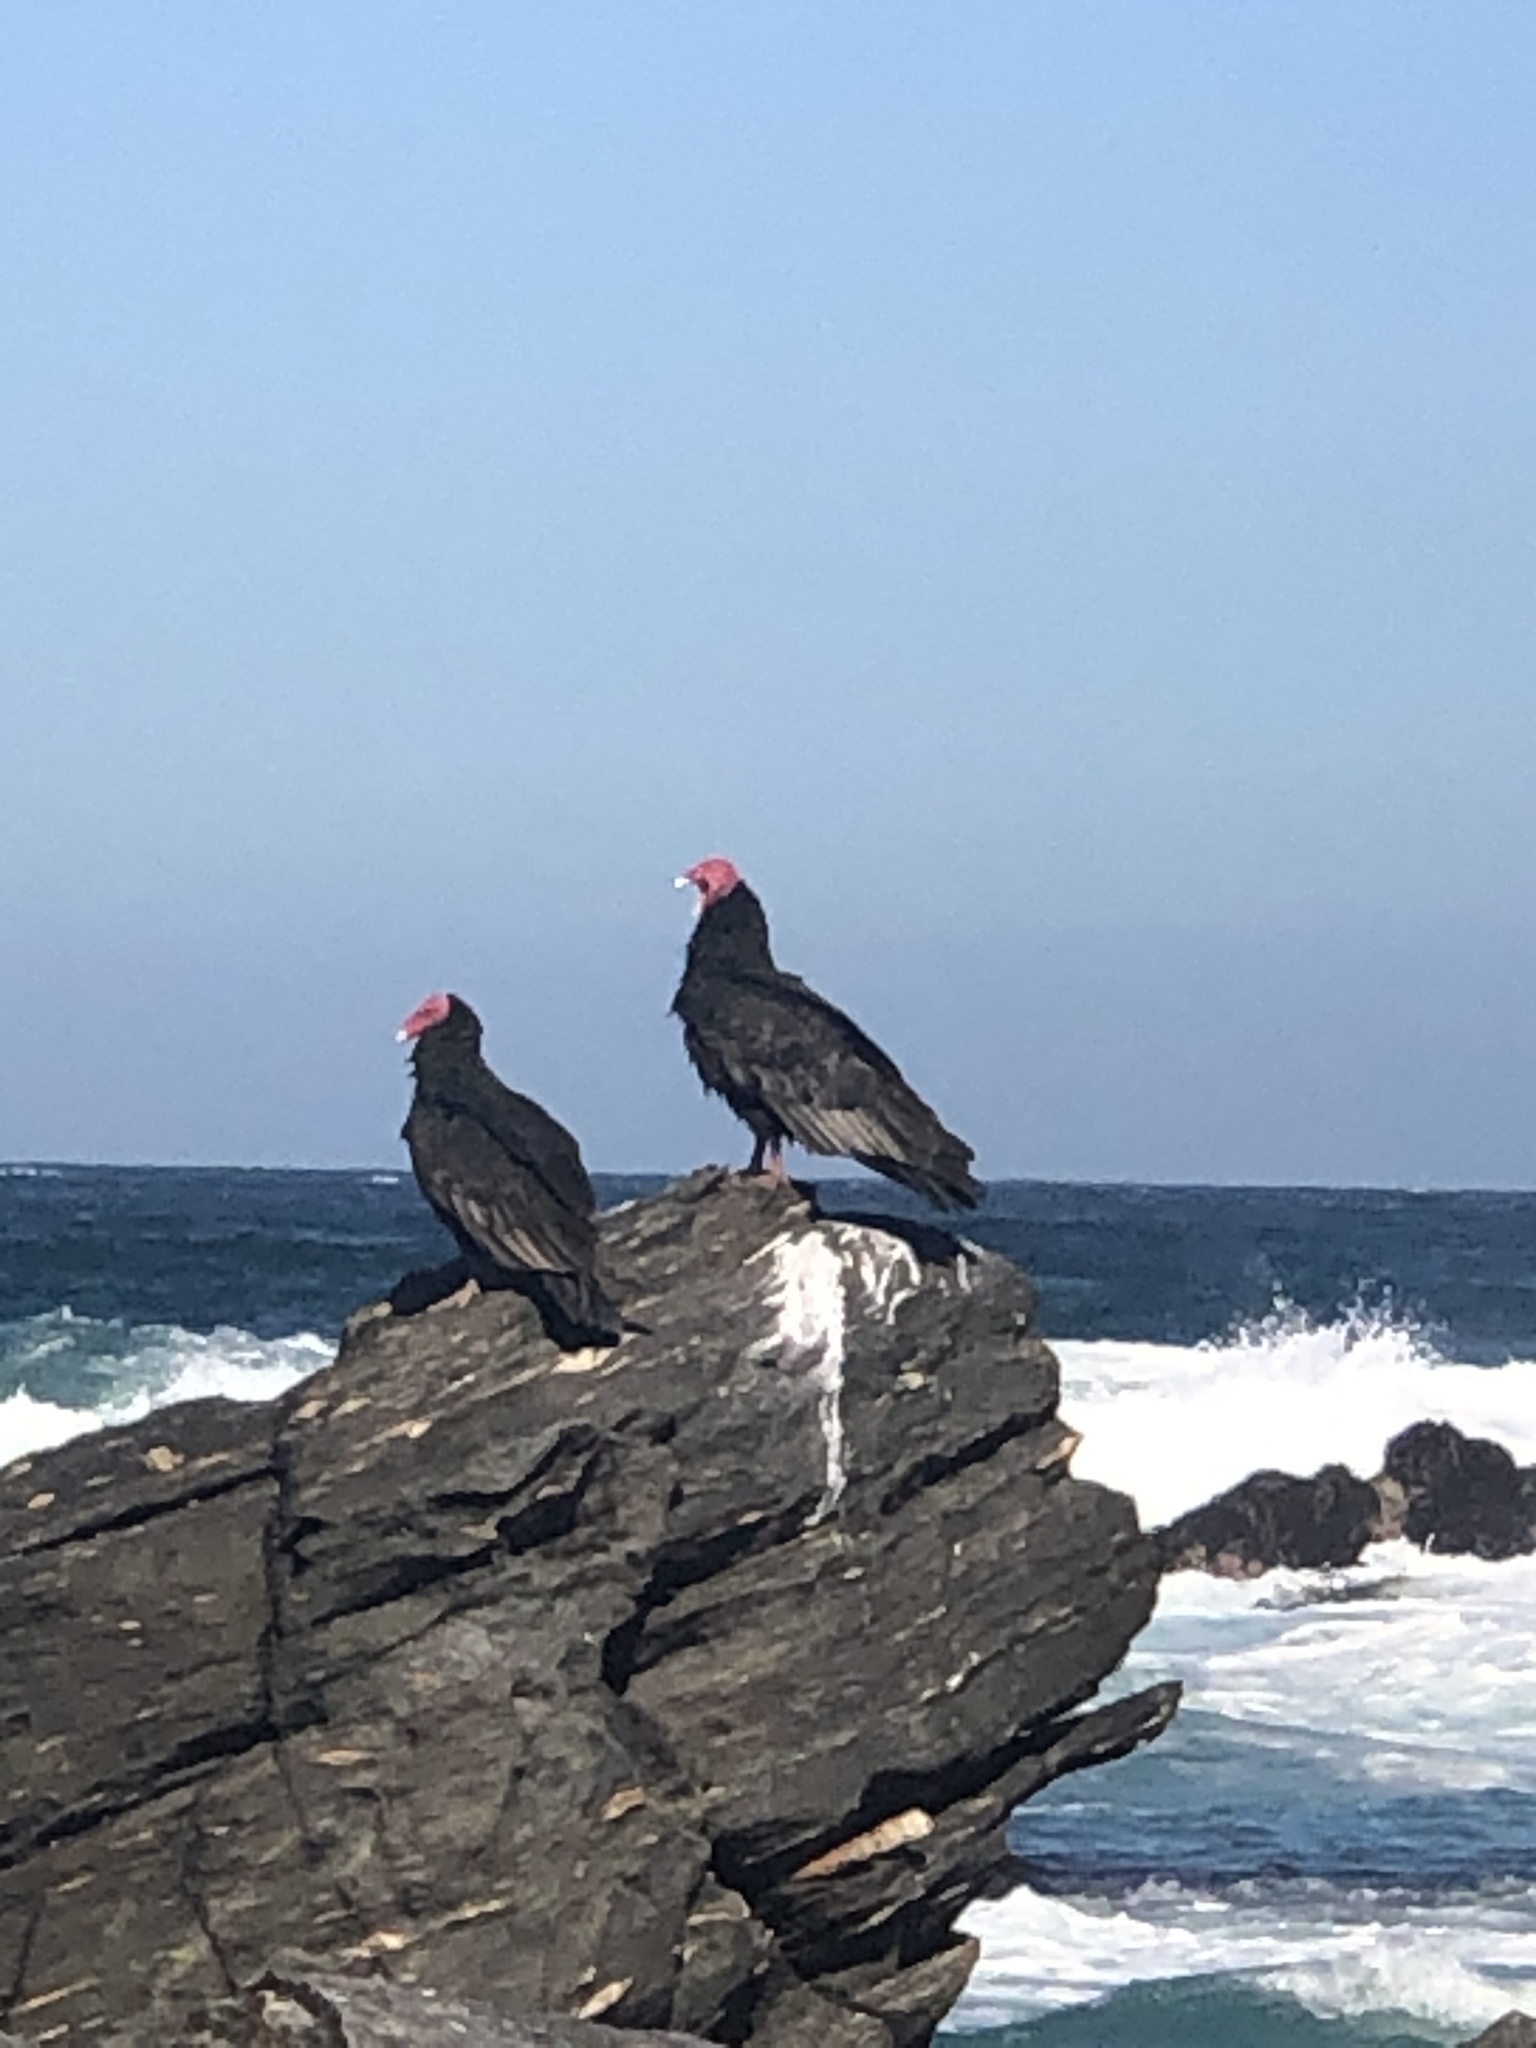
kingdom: Animalia
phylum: Chordata
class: Aves
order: Accipitriformes
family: Cathartidae
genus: Cathartes
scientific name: Cathartes aura
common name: Turkey vulture
